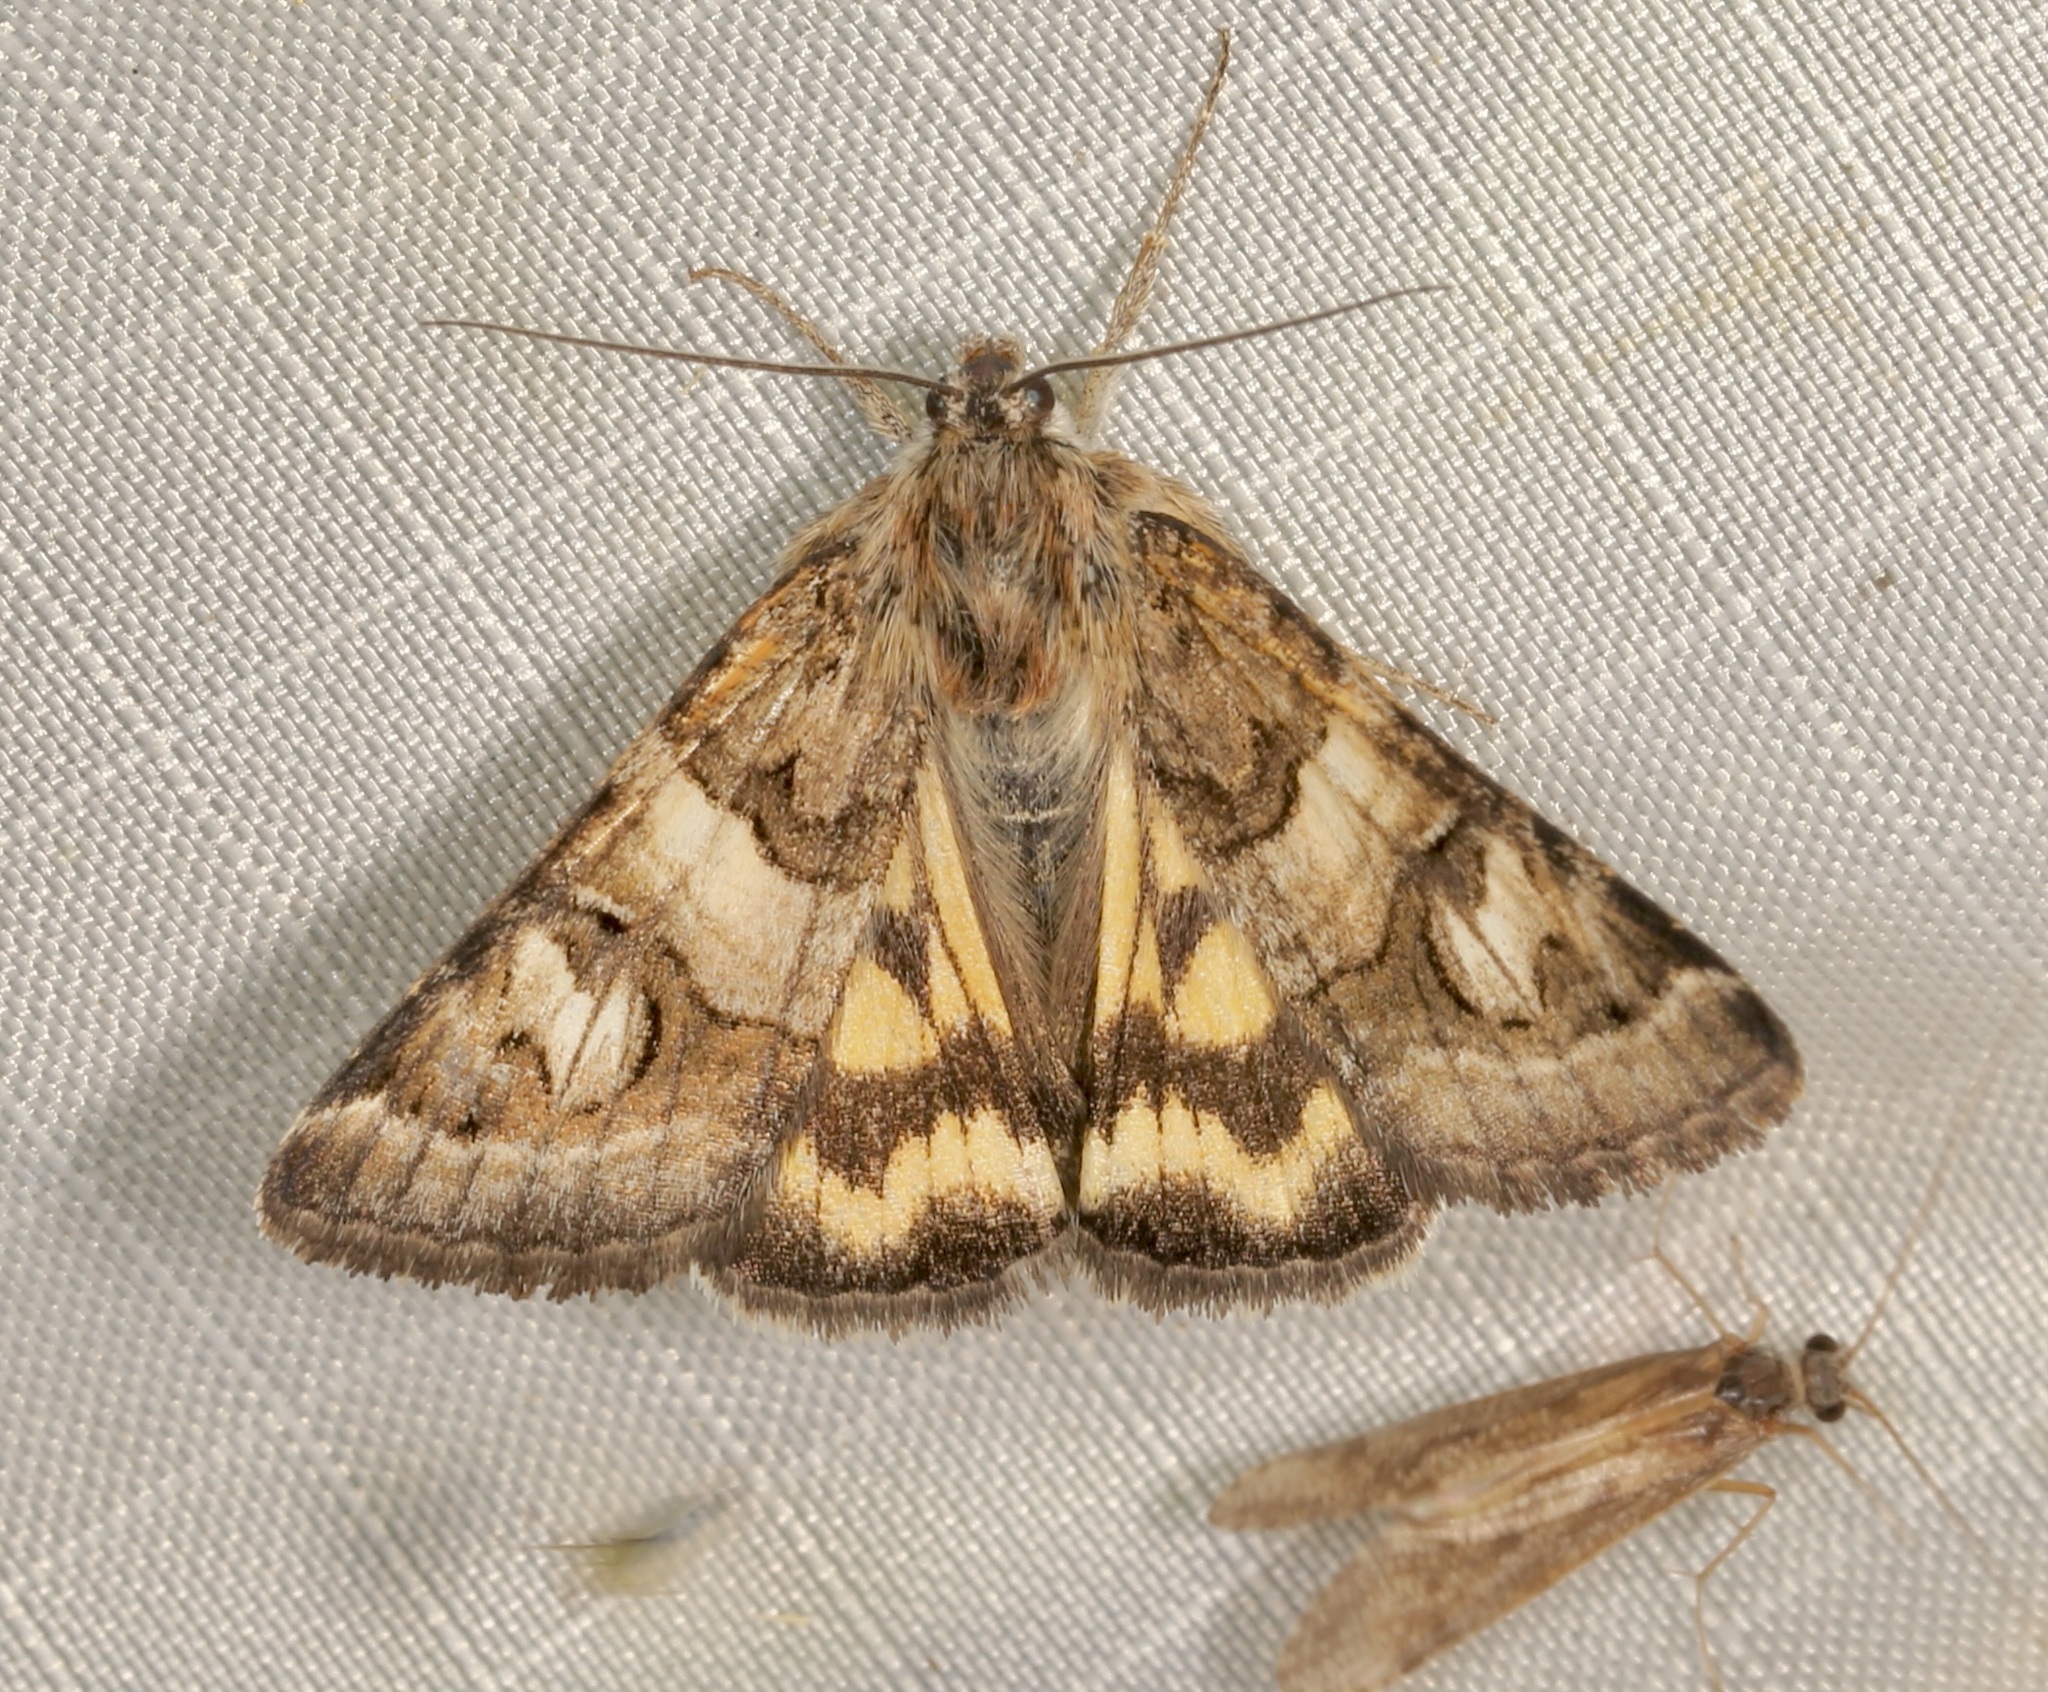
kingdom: Animalia
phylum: Arthropoda
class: Insecta
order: Lepidoptera
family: Erebidae
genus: Drasteria
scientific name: Drasteria petricola
